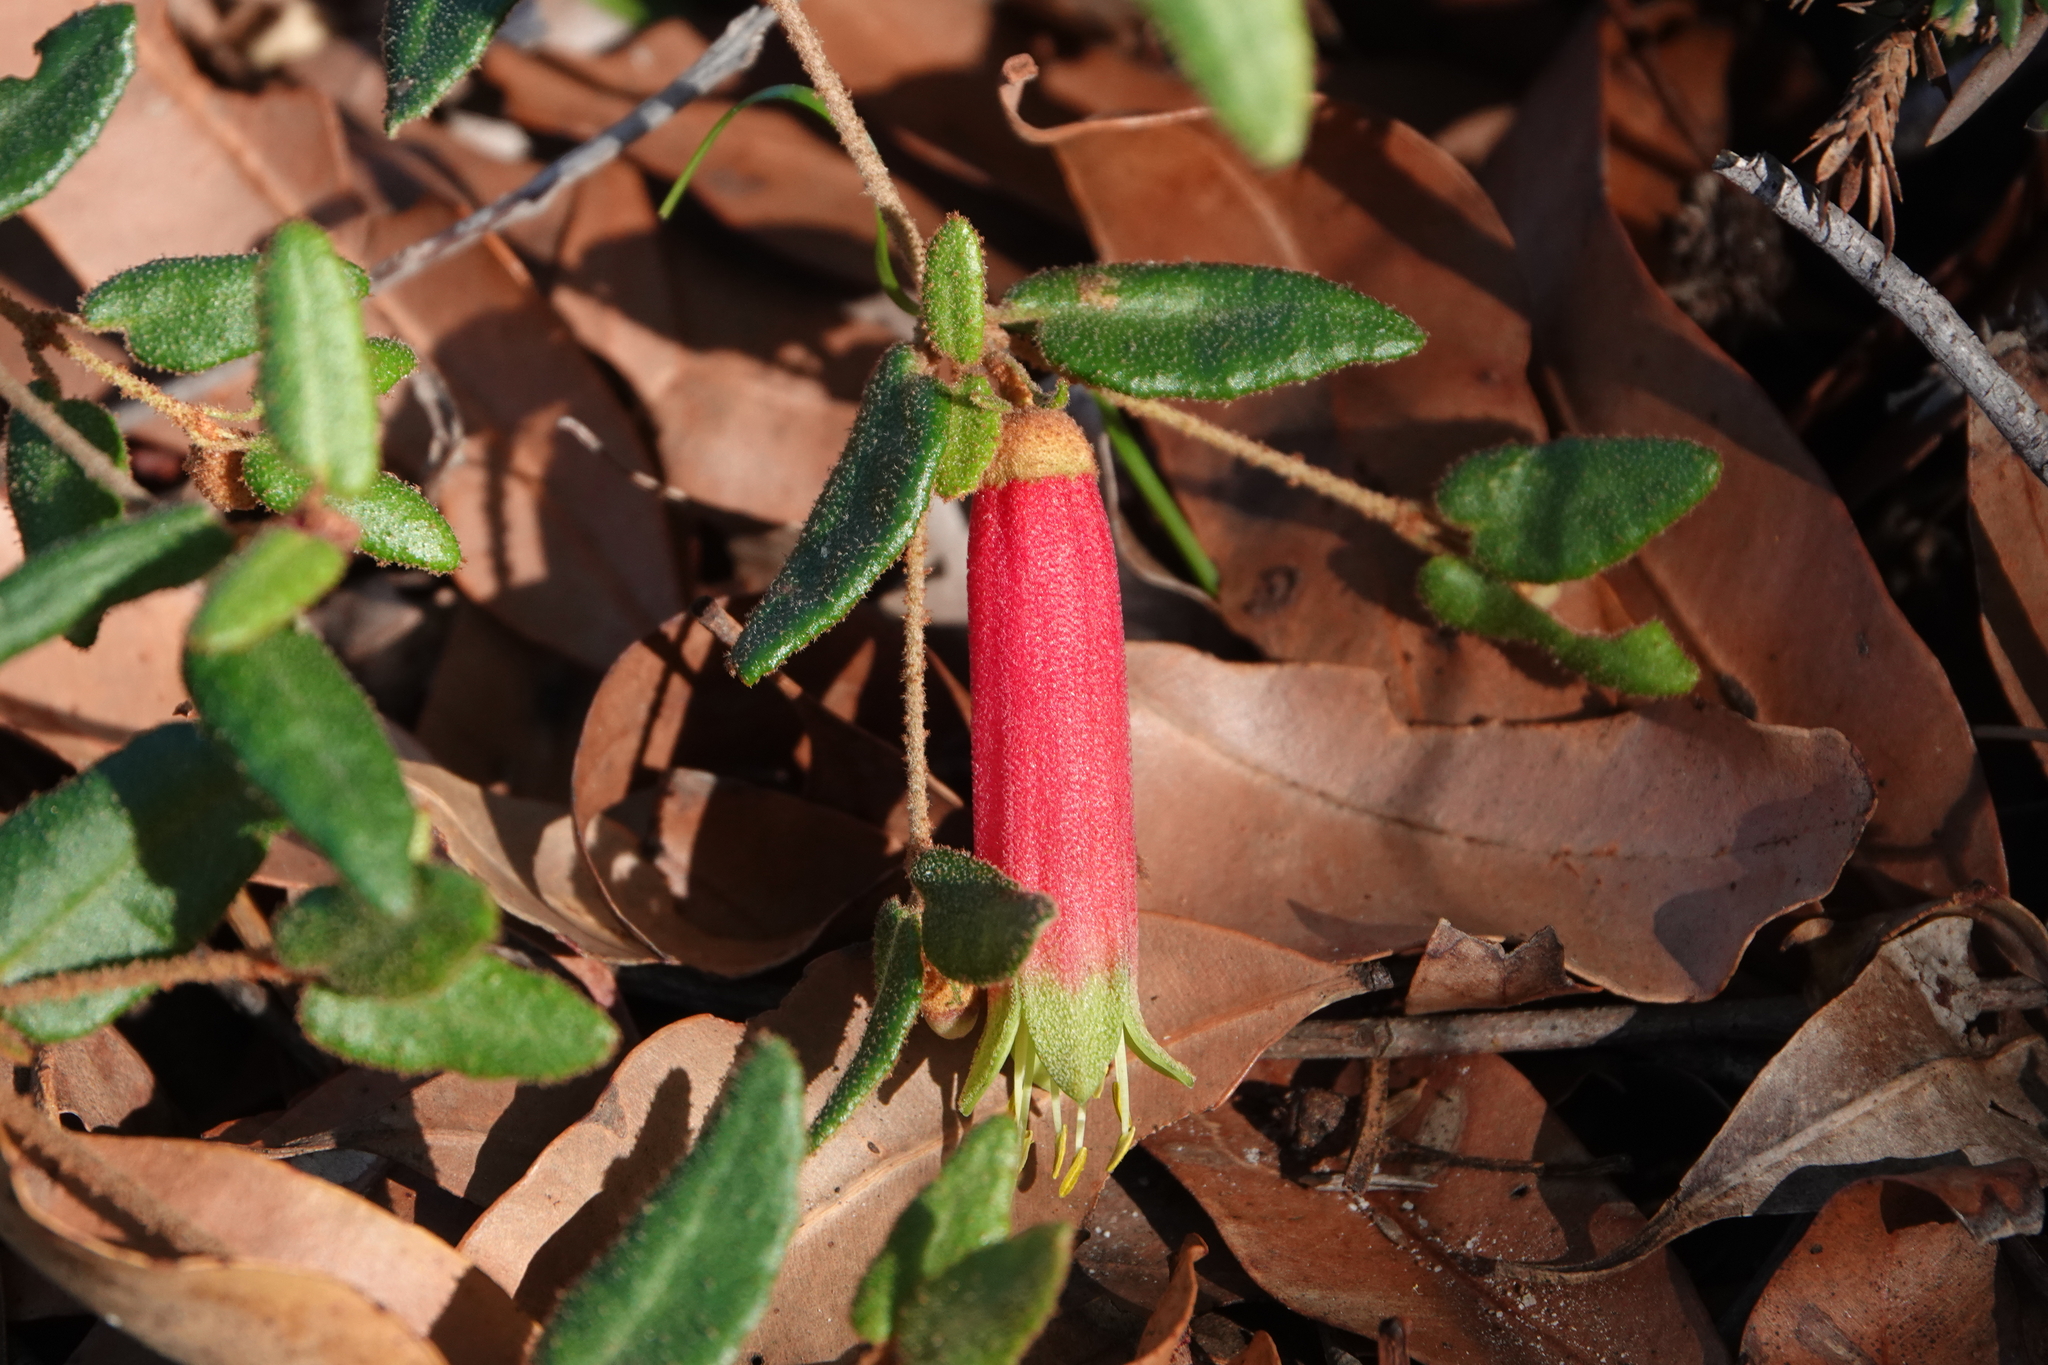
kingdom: Plantae
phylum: Tracheophyta
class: Magnoliopsida
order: Sapindales
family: Rutaceae
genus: Correa
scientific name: Correa reflexa
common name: Common correa
